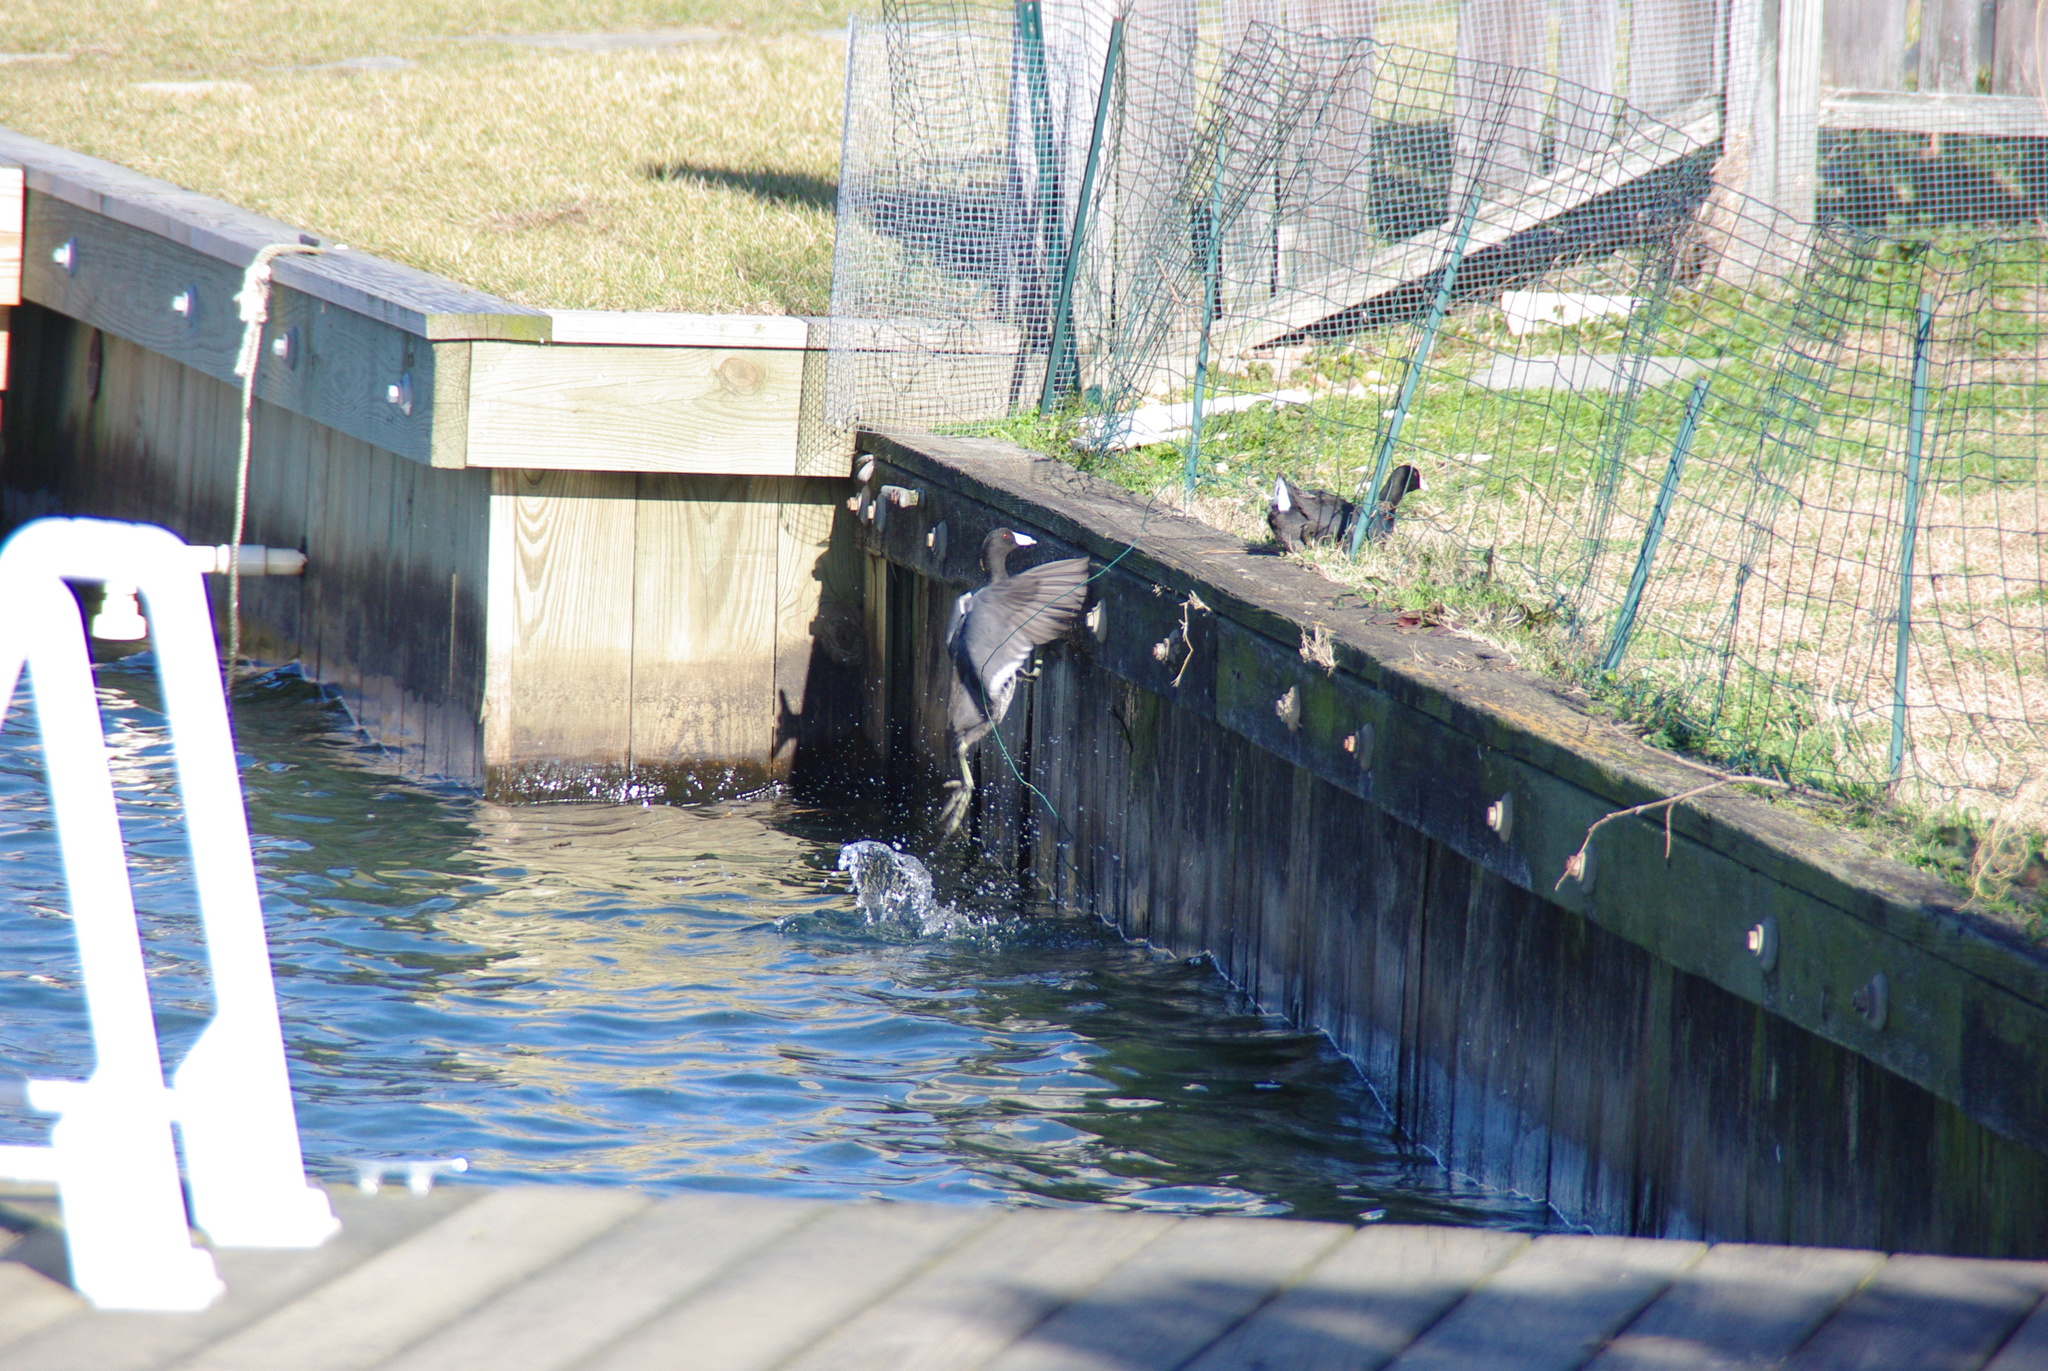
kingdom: Animalia
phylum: Chordata
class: Aves
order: Gruiformes
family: Rallidae
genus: Fulica
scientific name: Fulica americana
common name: American coot
